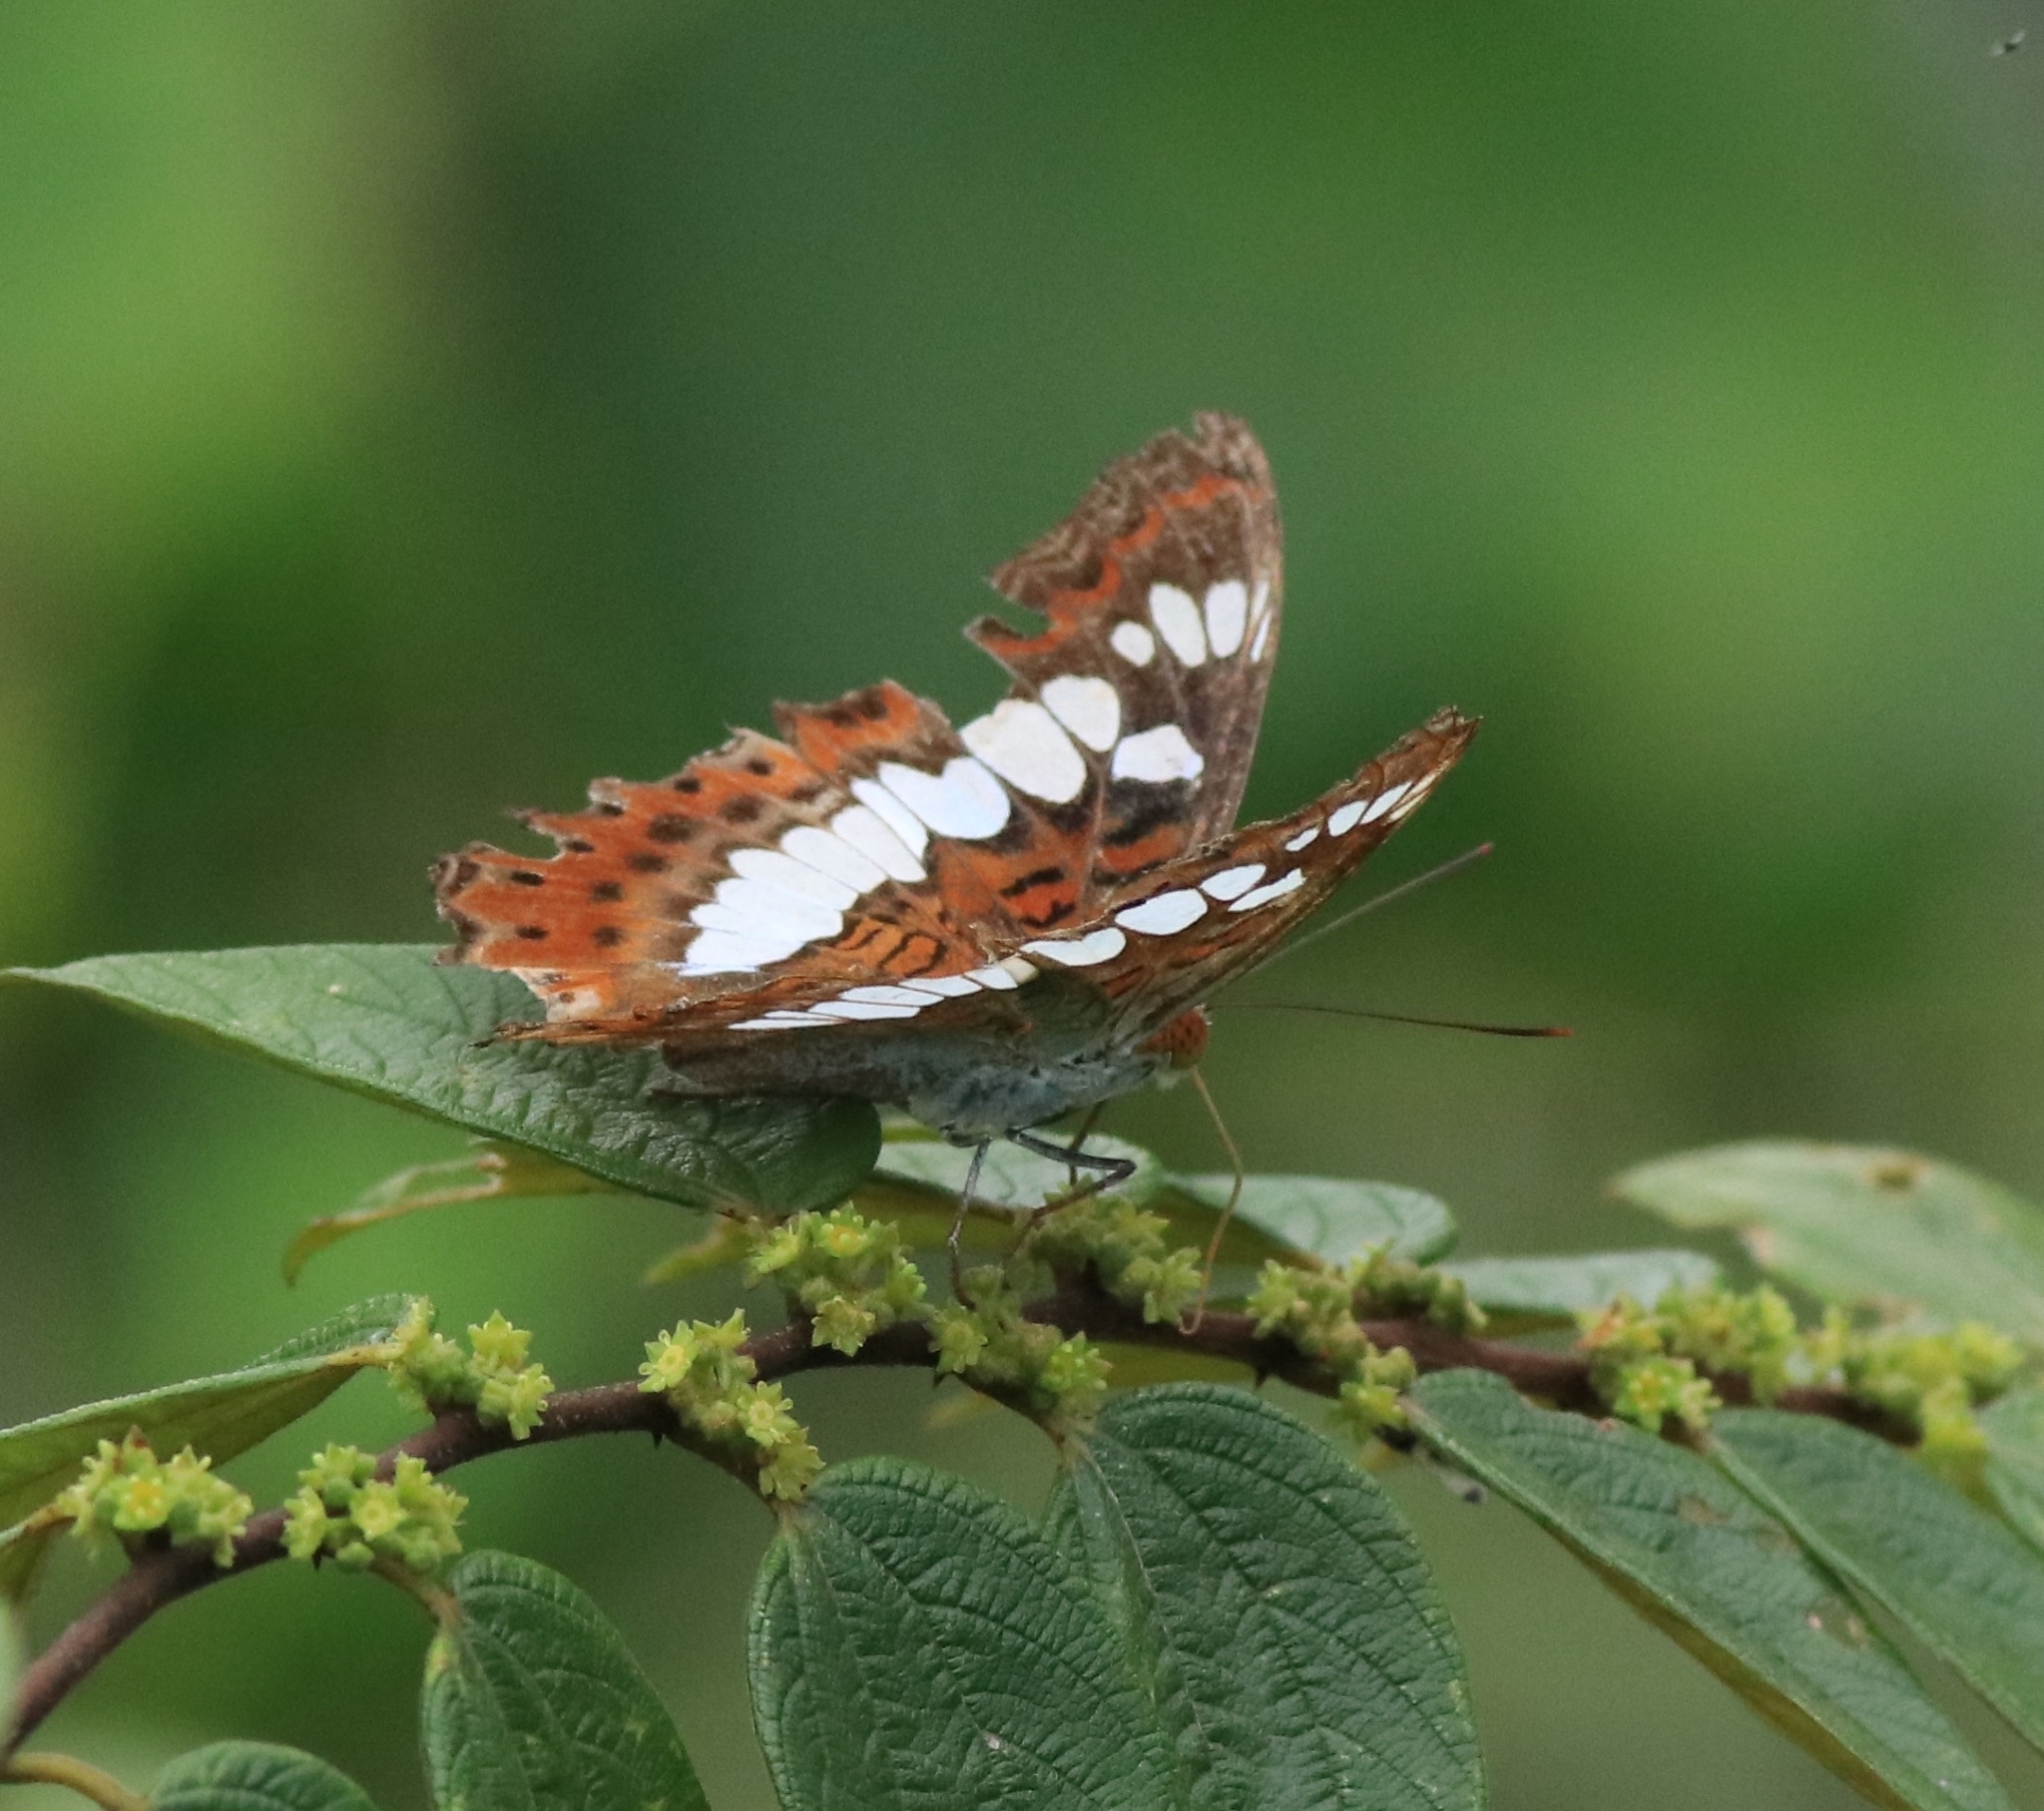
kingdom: Animalia
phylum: Arthropoda
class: Insecta
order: Lepidoptera
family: Nymphalidae
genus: Limenitis
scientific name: Limenitis Moduza procris
